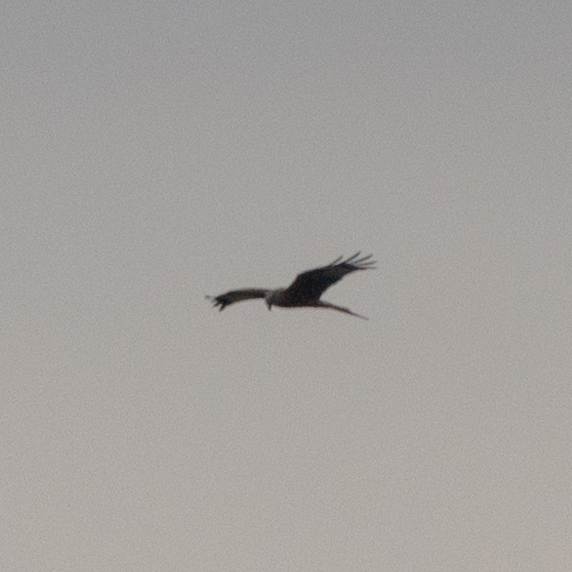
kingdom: Animalia
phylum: Chordata
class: Aves
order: Accipitriformes
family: Accipitridae
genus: Milvus
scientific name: Milvus milvus
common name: Red kite
